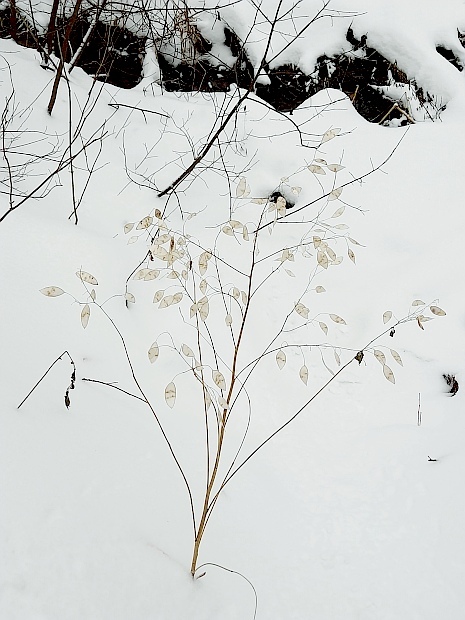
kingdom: Plantae
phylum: Tracheophyta
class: Magnoliopsida
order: Brassicales
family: Brassicaceae
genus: Lunaria
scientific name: Lunaria rediviva
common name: Perennial honesty
